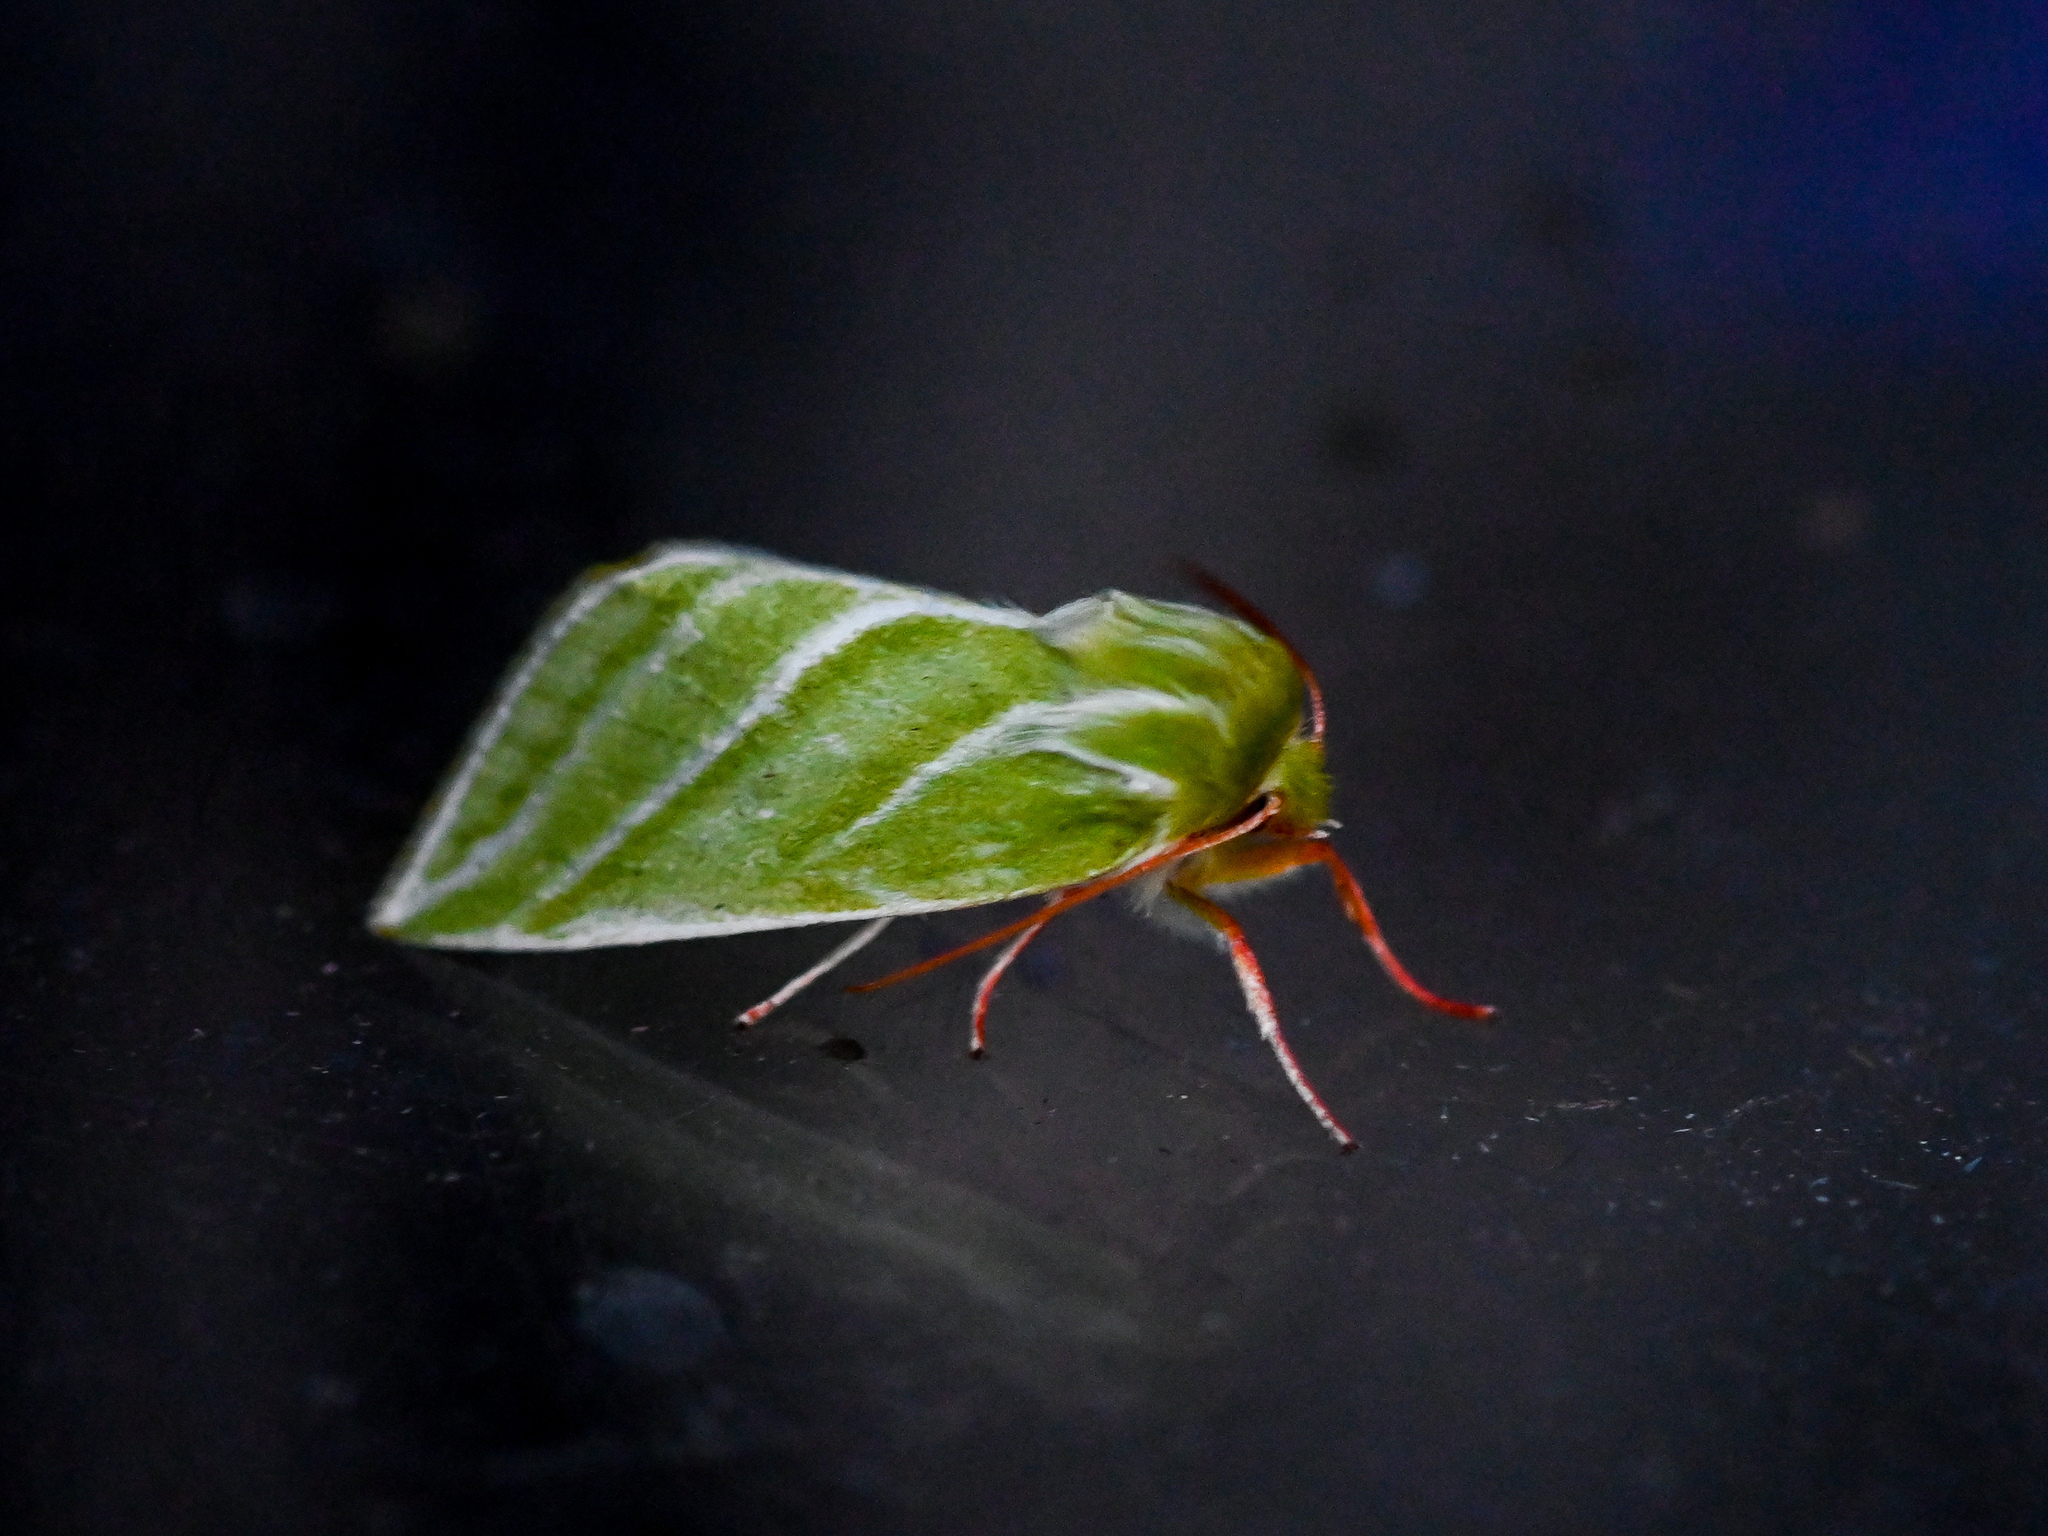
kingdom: Animalia
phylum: Arthropoda
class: Insecta
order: Lepidoptera
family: Nolidae
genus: Pseudoips
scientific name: Pseudoips prasinana
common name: Green silver-lines
